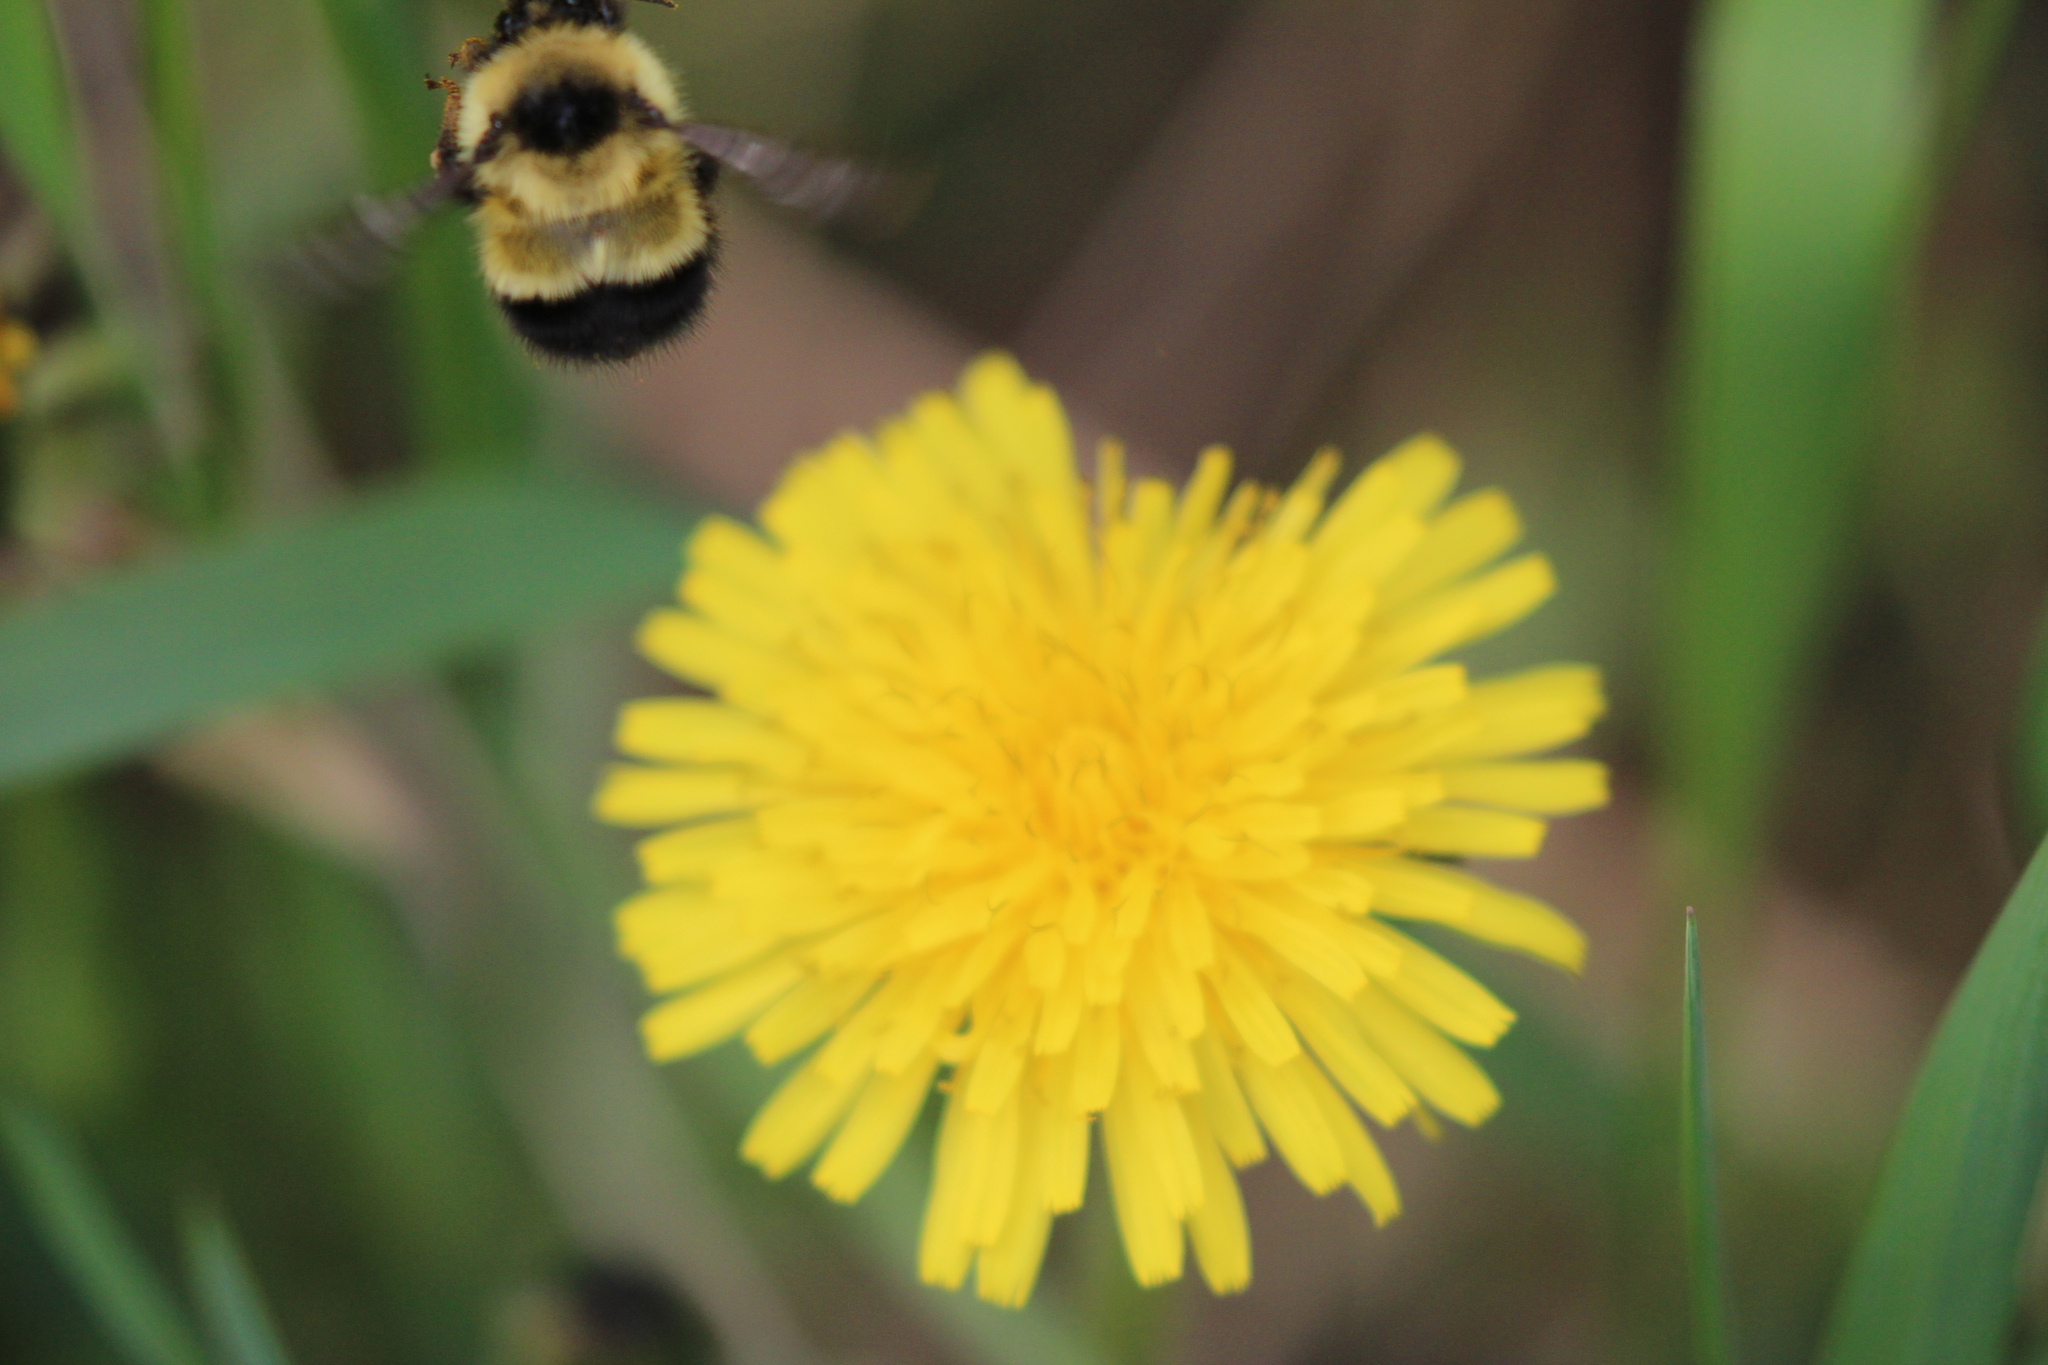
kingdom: Animalia
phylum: Arthropoda
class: Insecta
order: Hymenoptera
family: Apidae
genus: Pyrobombus
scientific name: Pyrobombus
